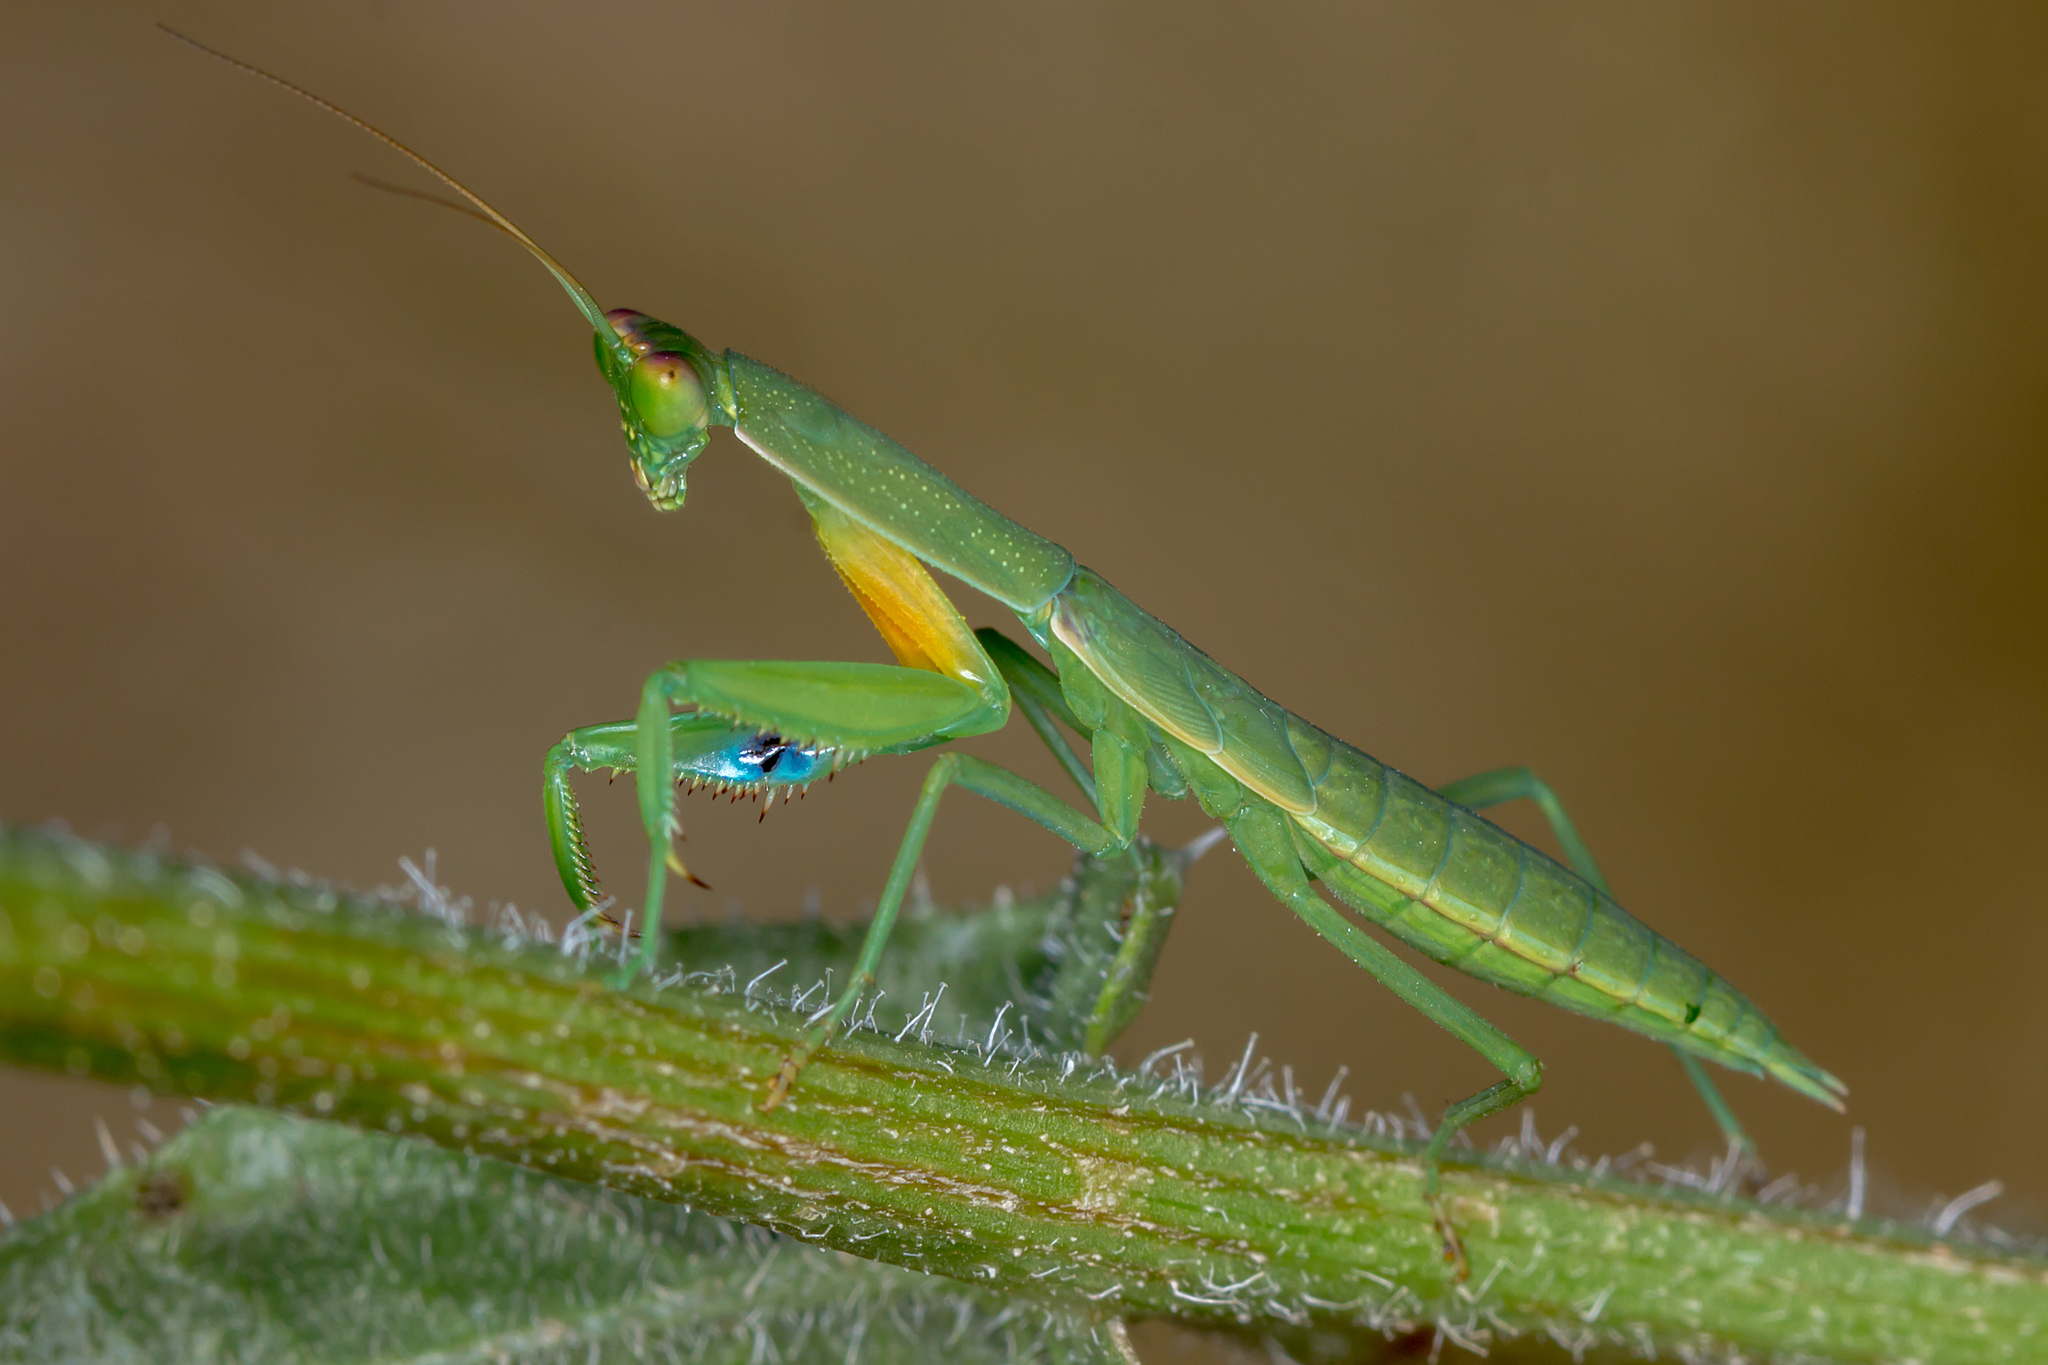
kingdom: Animalia
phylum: Arthropoda
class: Insecta
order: Mantodea
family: Mantidae
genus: Orthodera
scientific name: Orthodera ministralis
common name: Mantis
